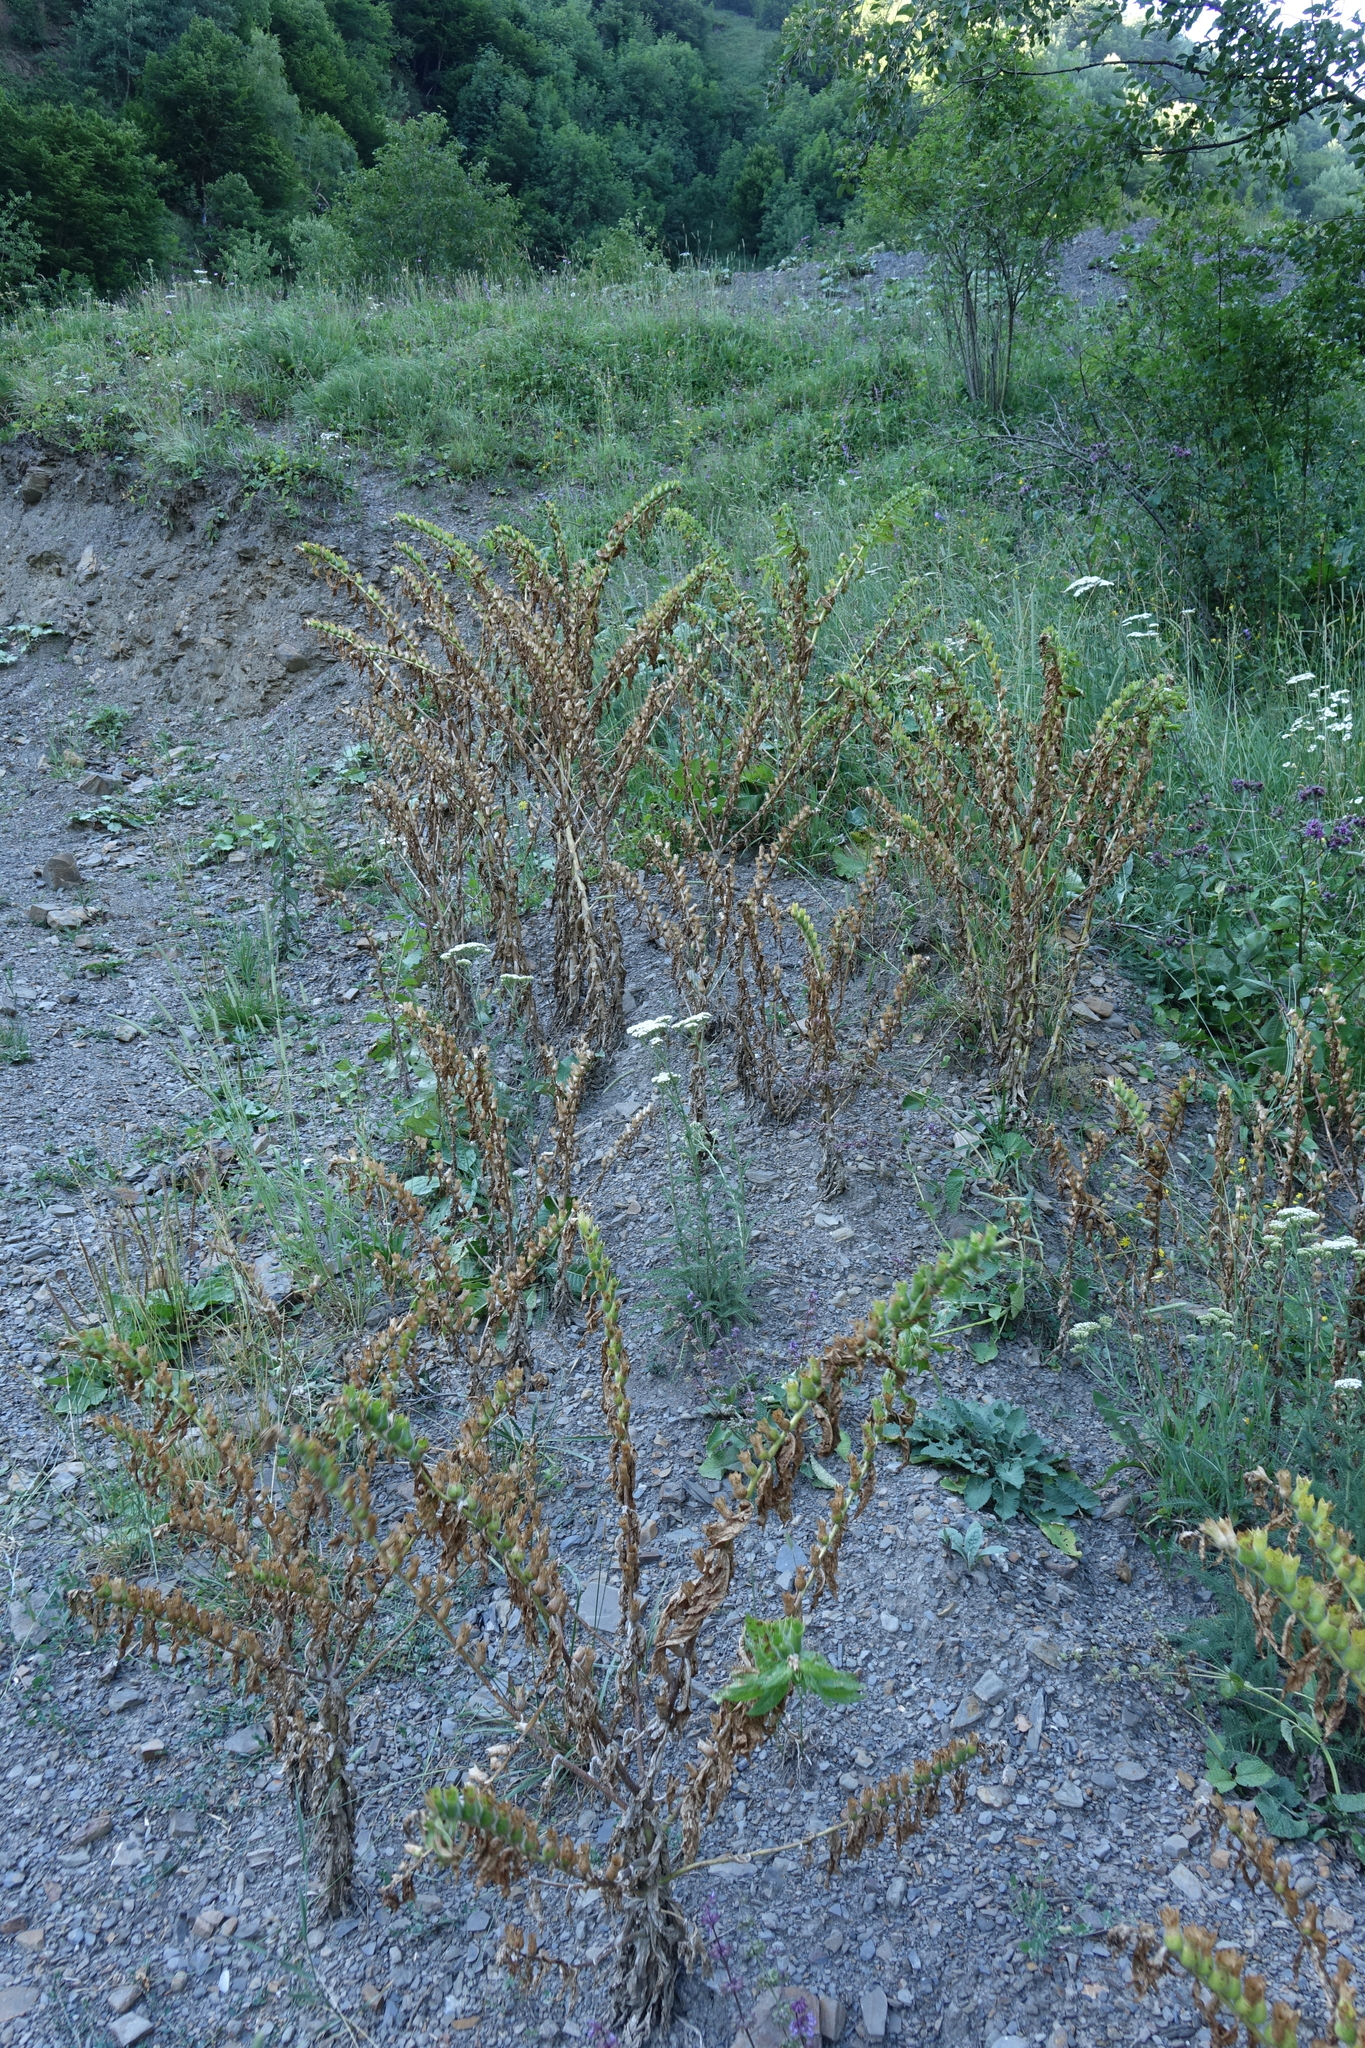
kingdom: Plantae
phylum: Tracheophyta
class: Magnoliopsida
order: Solanales
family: Solanaceae
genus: Hyoscyamus
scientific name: Hyoscyamus niger
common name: Henbane
